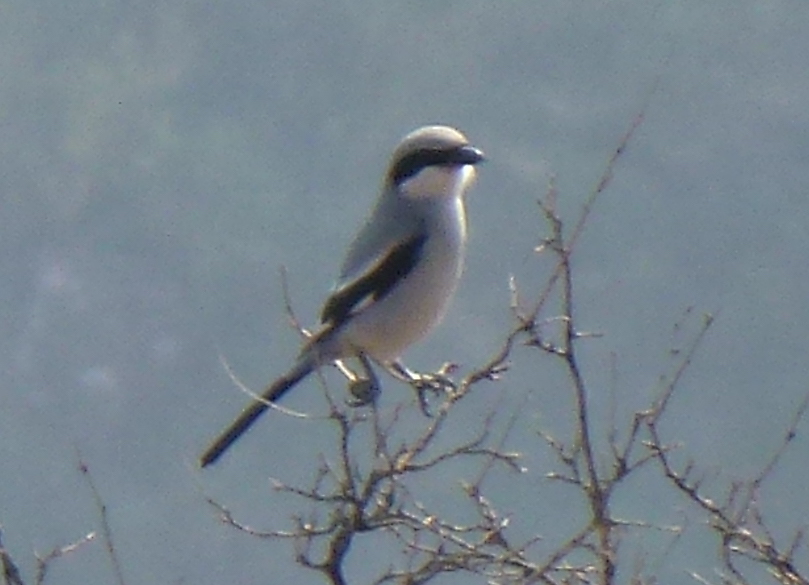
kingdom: Animalia
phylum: Chordata
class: Aves
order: Passeriformes
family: Laniidae
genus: Lanius
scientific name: Lanius excubitor
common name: Great grey shrike
